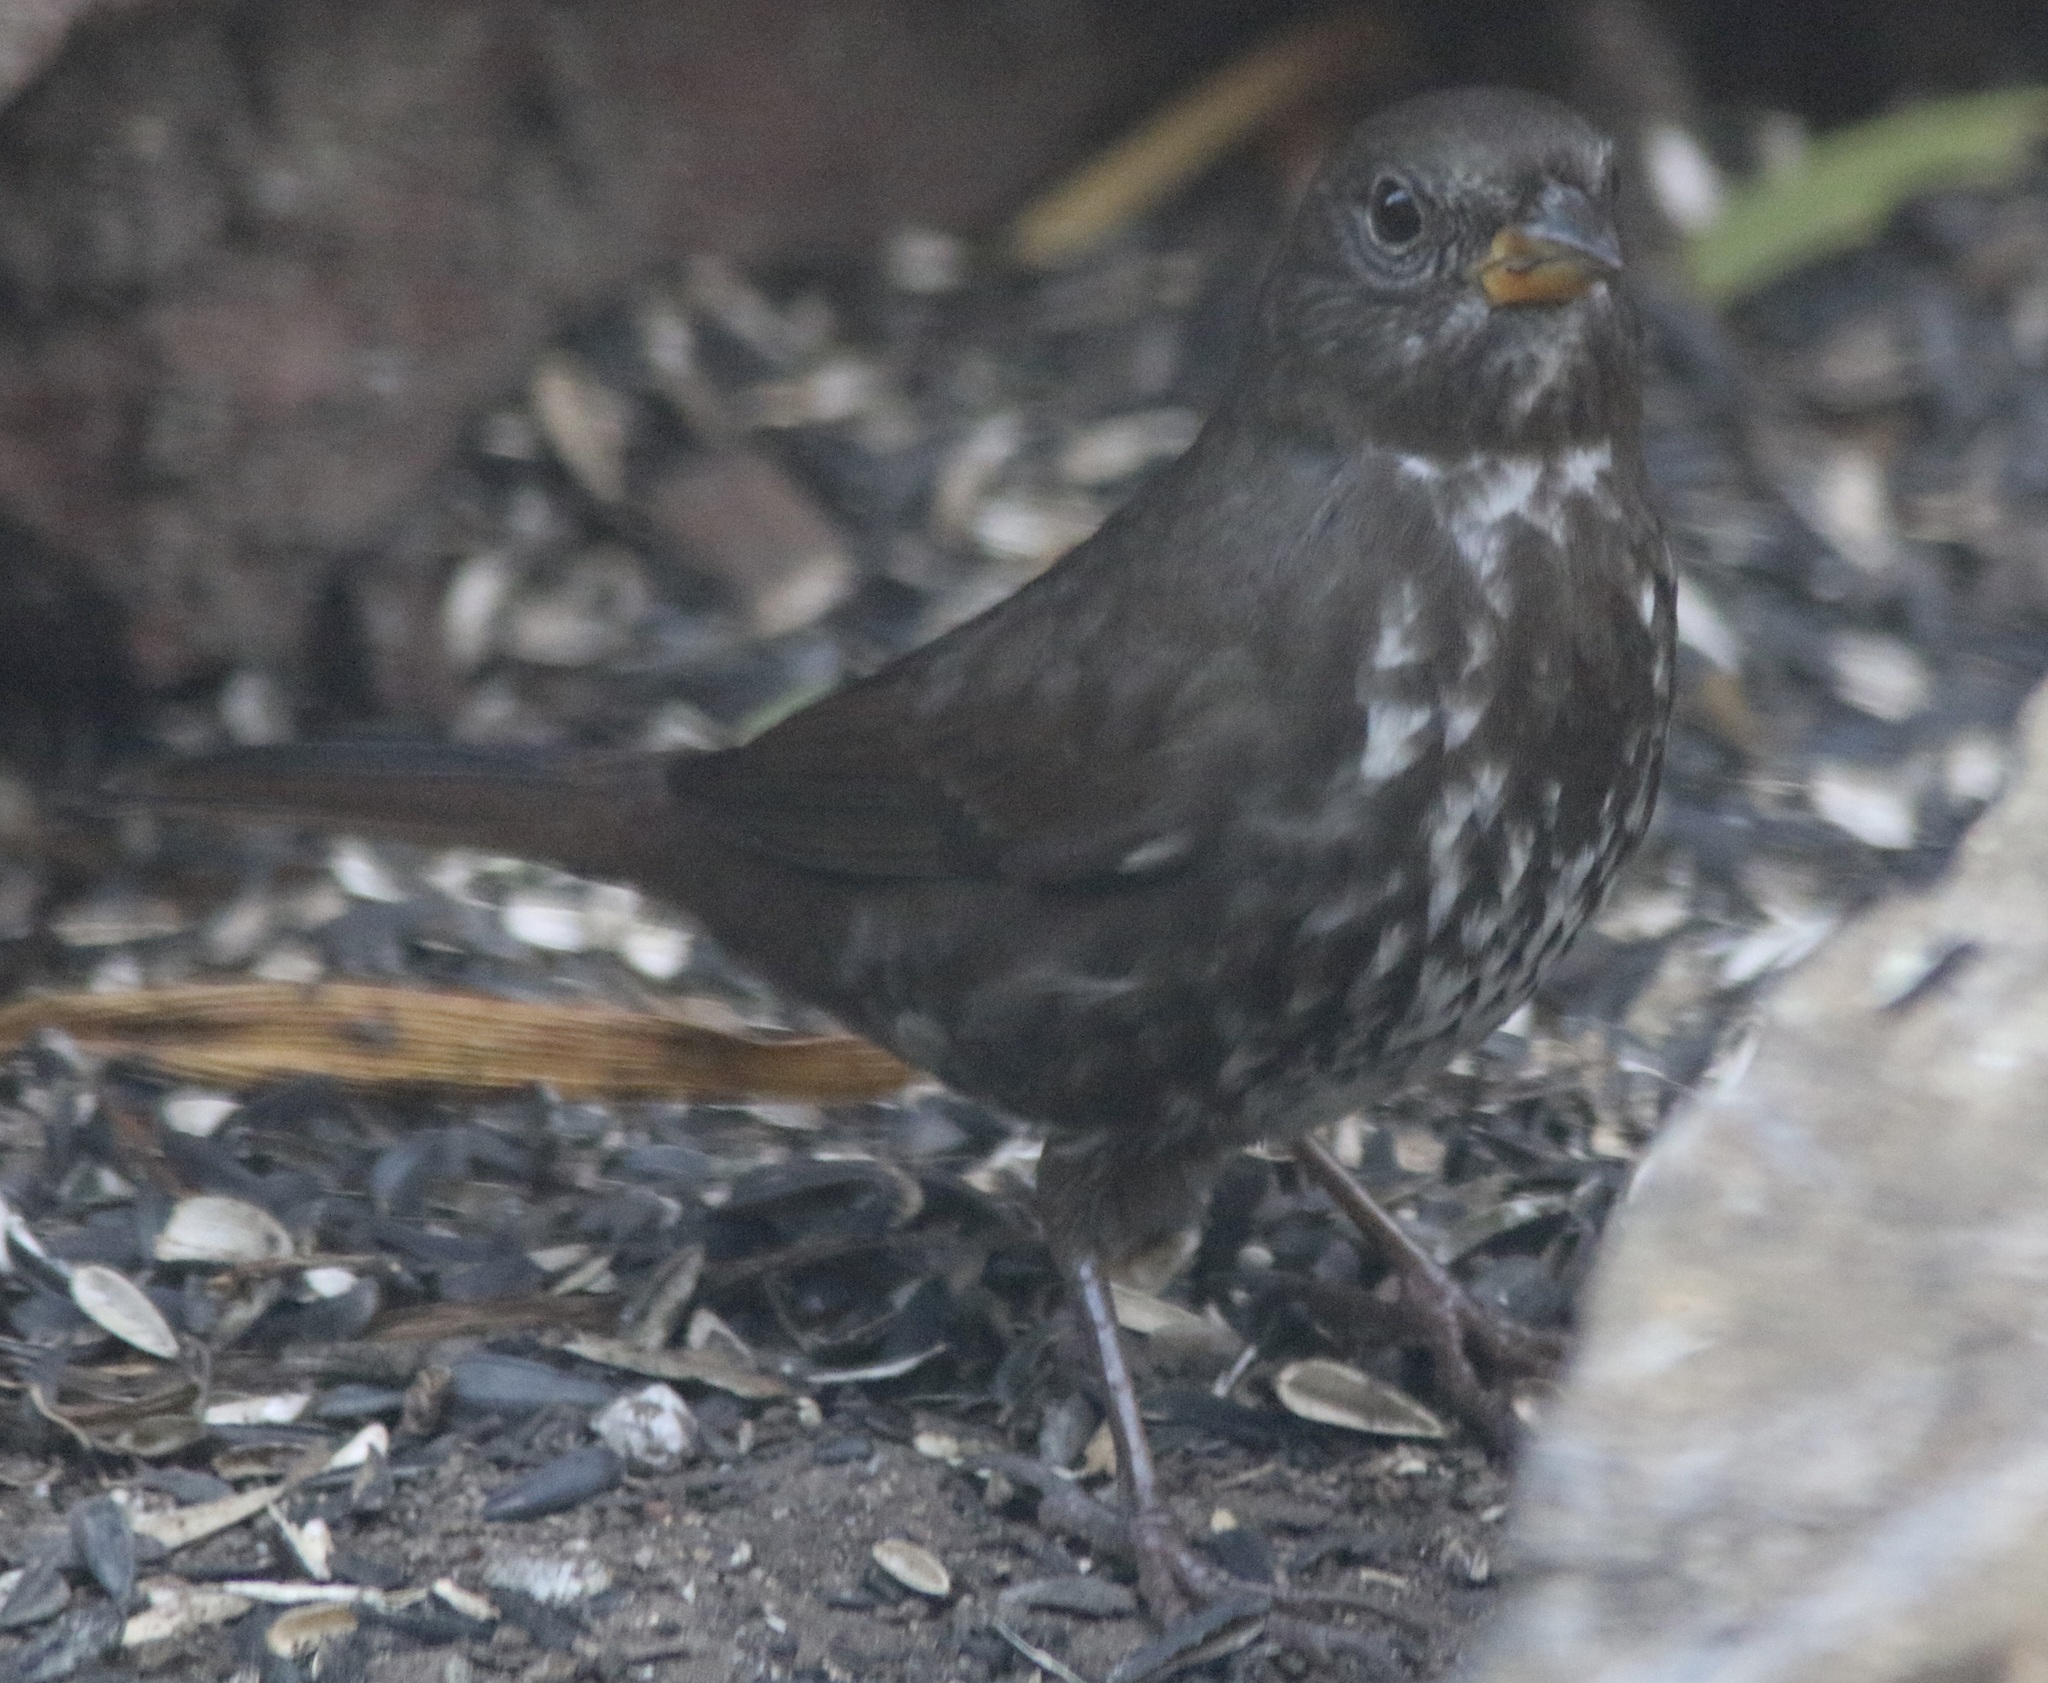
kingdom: Animalia
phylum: Chordata
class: Aves
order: Passeriformes
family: Passerellidae
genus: Passerella
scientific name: Passerella iliaca
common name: Fox sparrow
